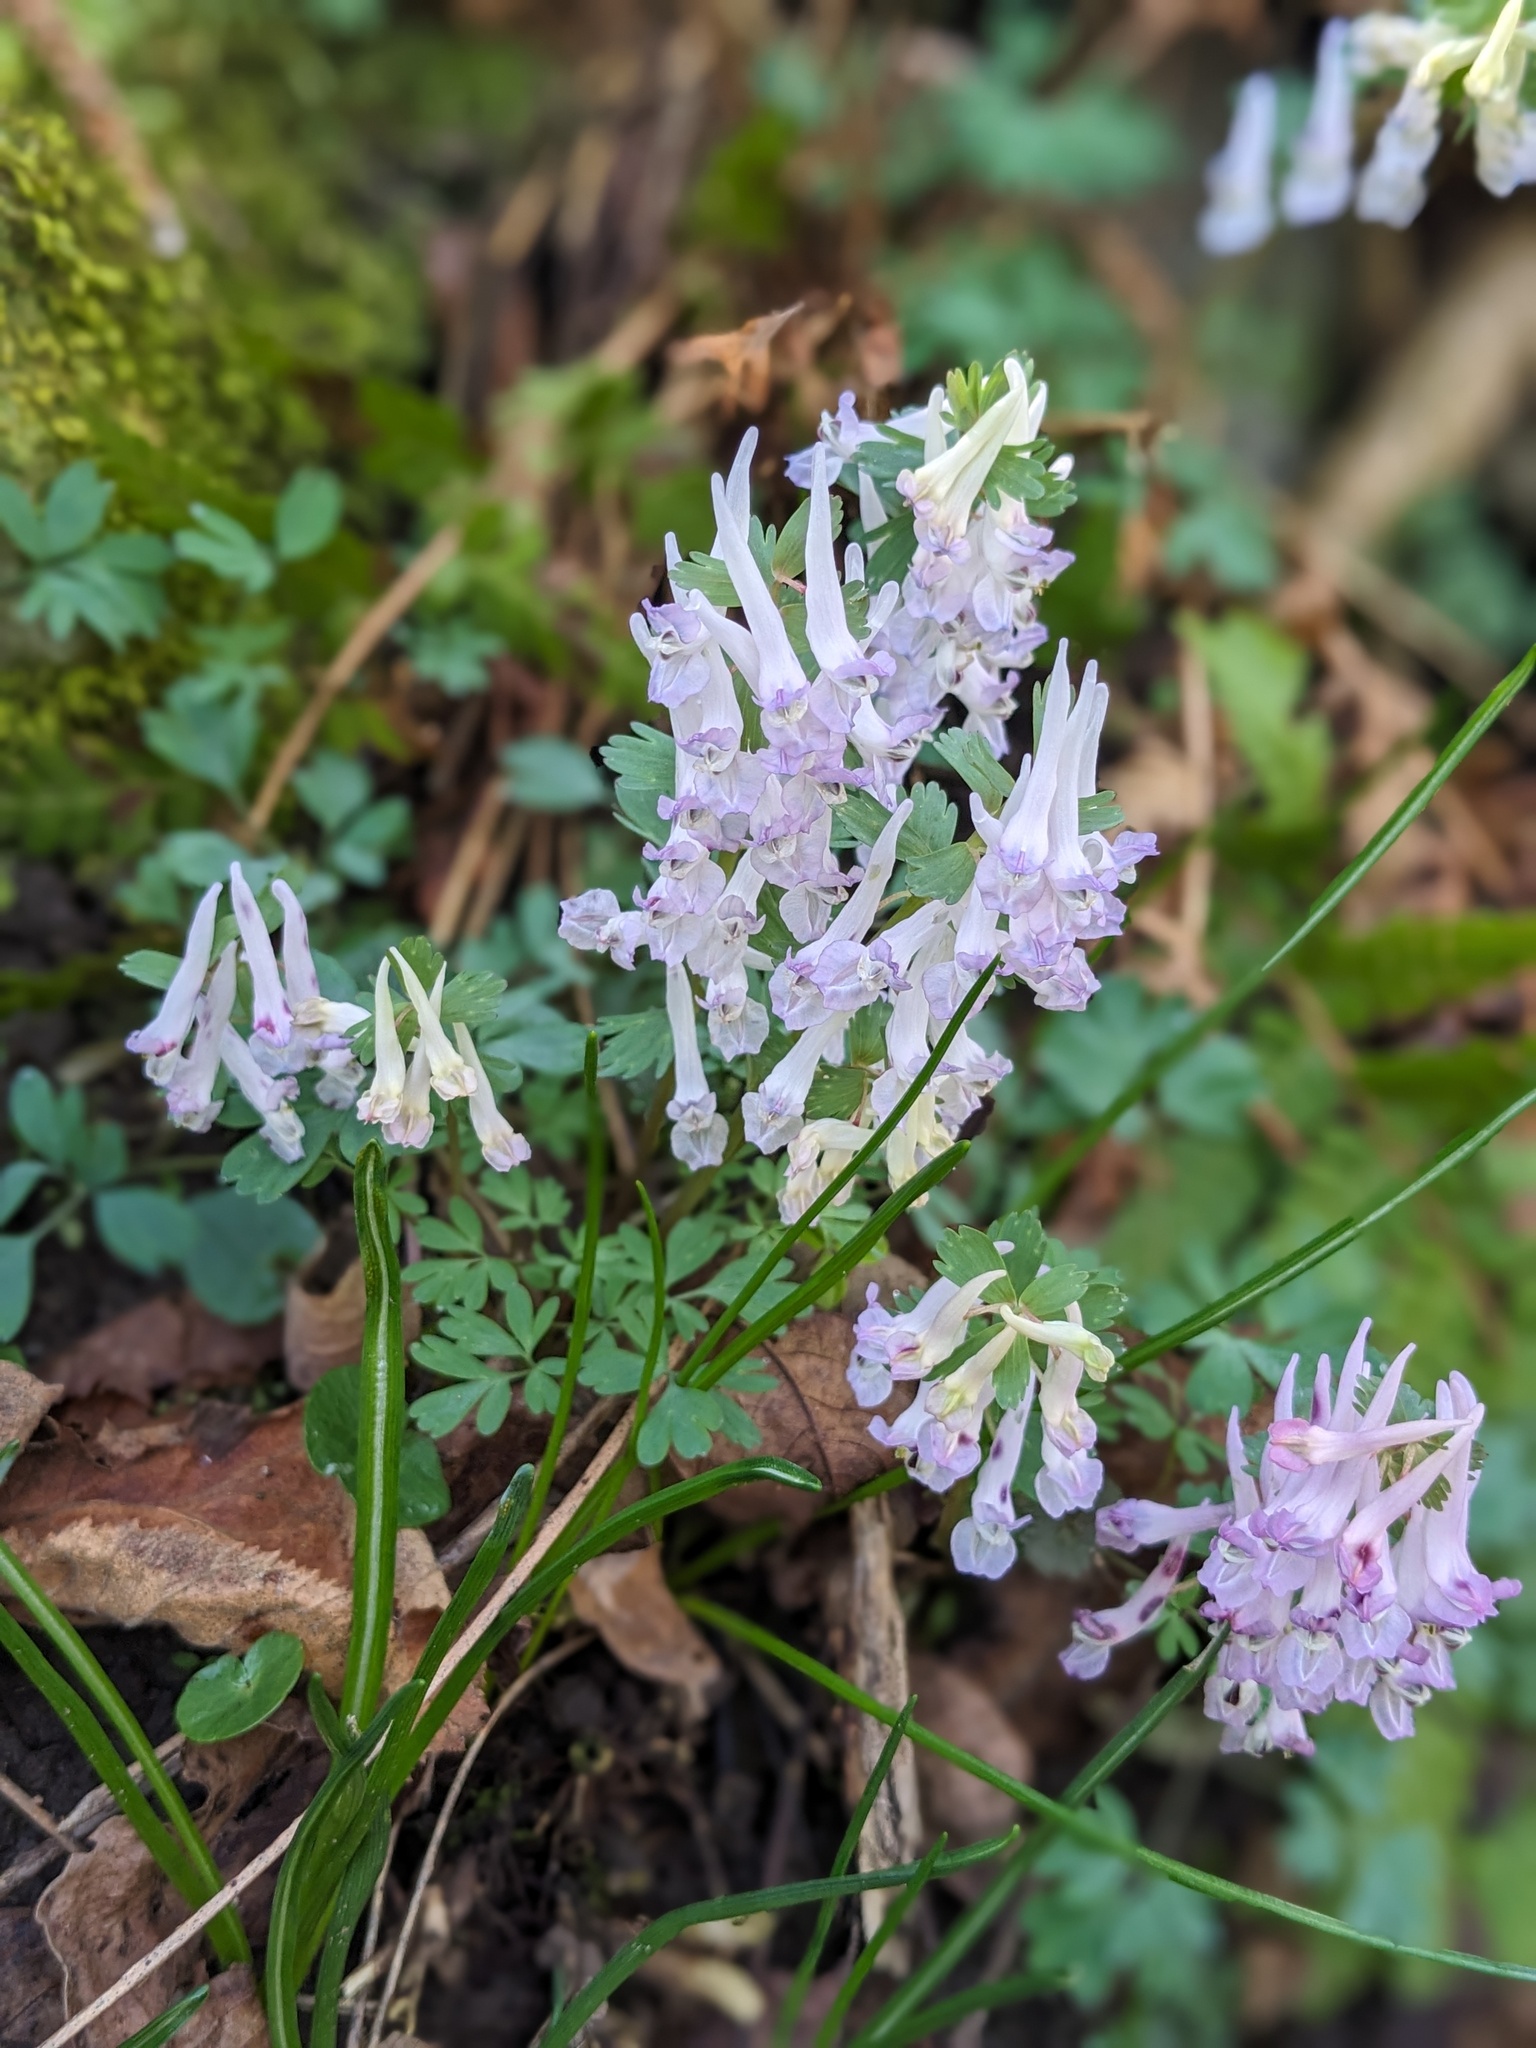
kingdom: Plantae
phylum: Tracheophyta
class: Magnoliopsida
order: Ranunculales
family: Papaveraceae
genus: Corydalis
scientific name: Corydalis solida
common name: Bird-in-a-bush
